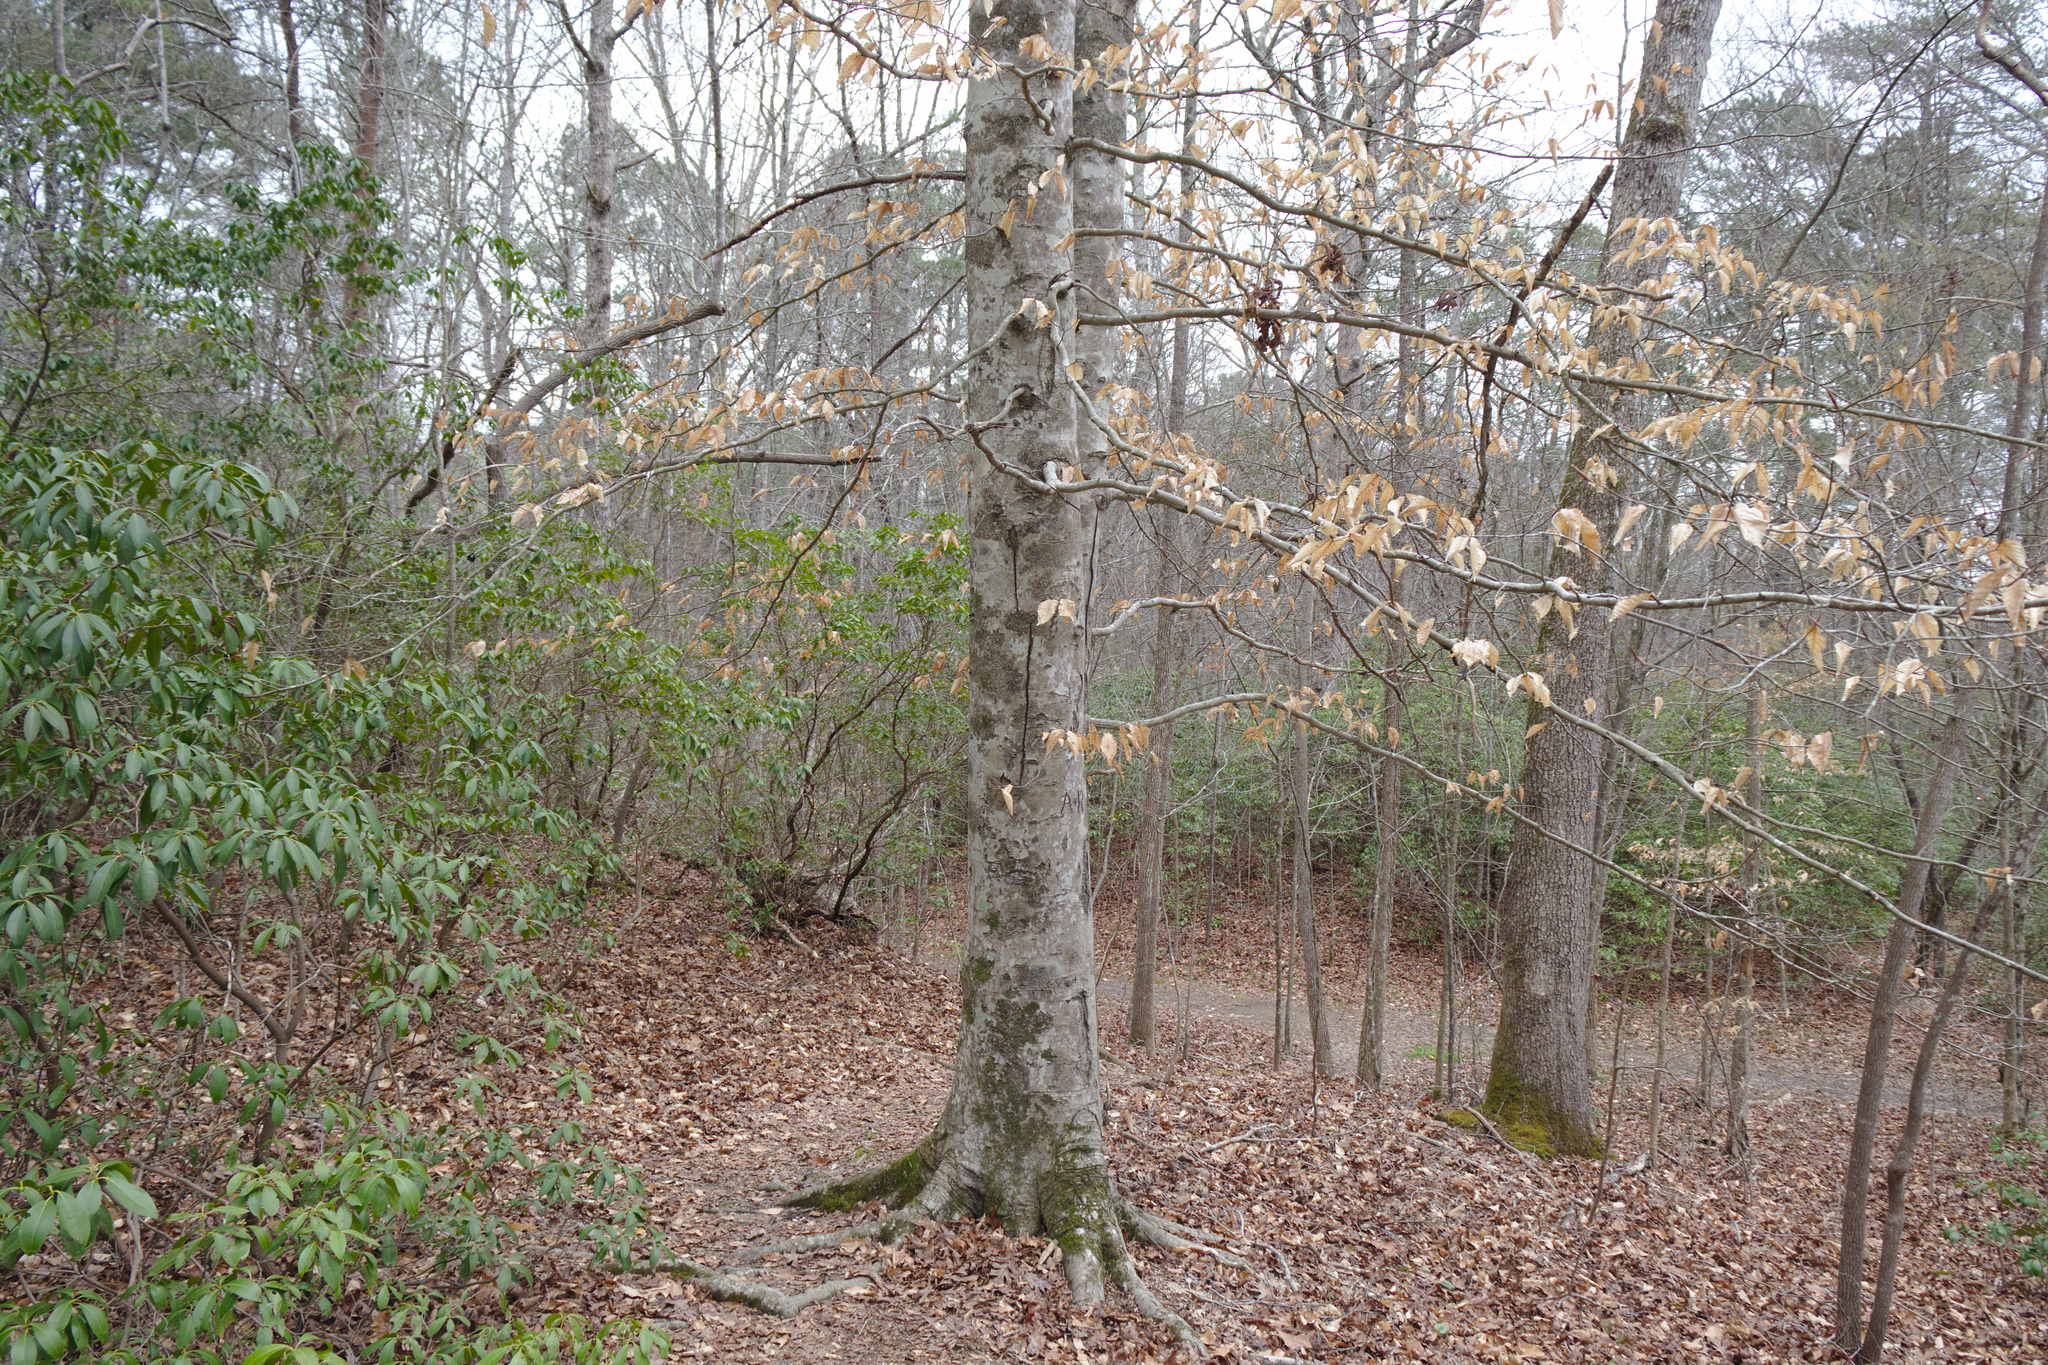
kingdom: Plantae
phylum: Tracheophyta
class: Magnoliopsida
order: Fagales
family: Fagaceae
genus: Fagus
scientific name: Fagus grandifolia
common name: American beech
